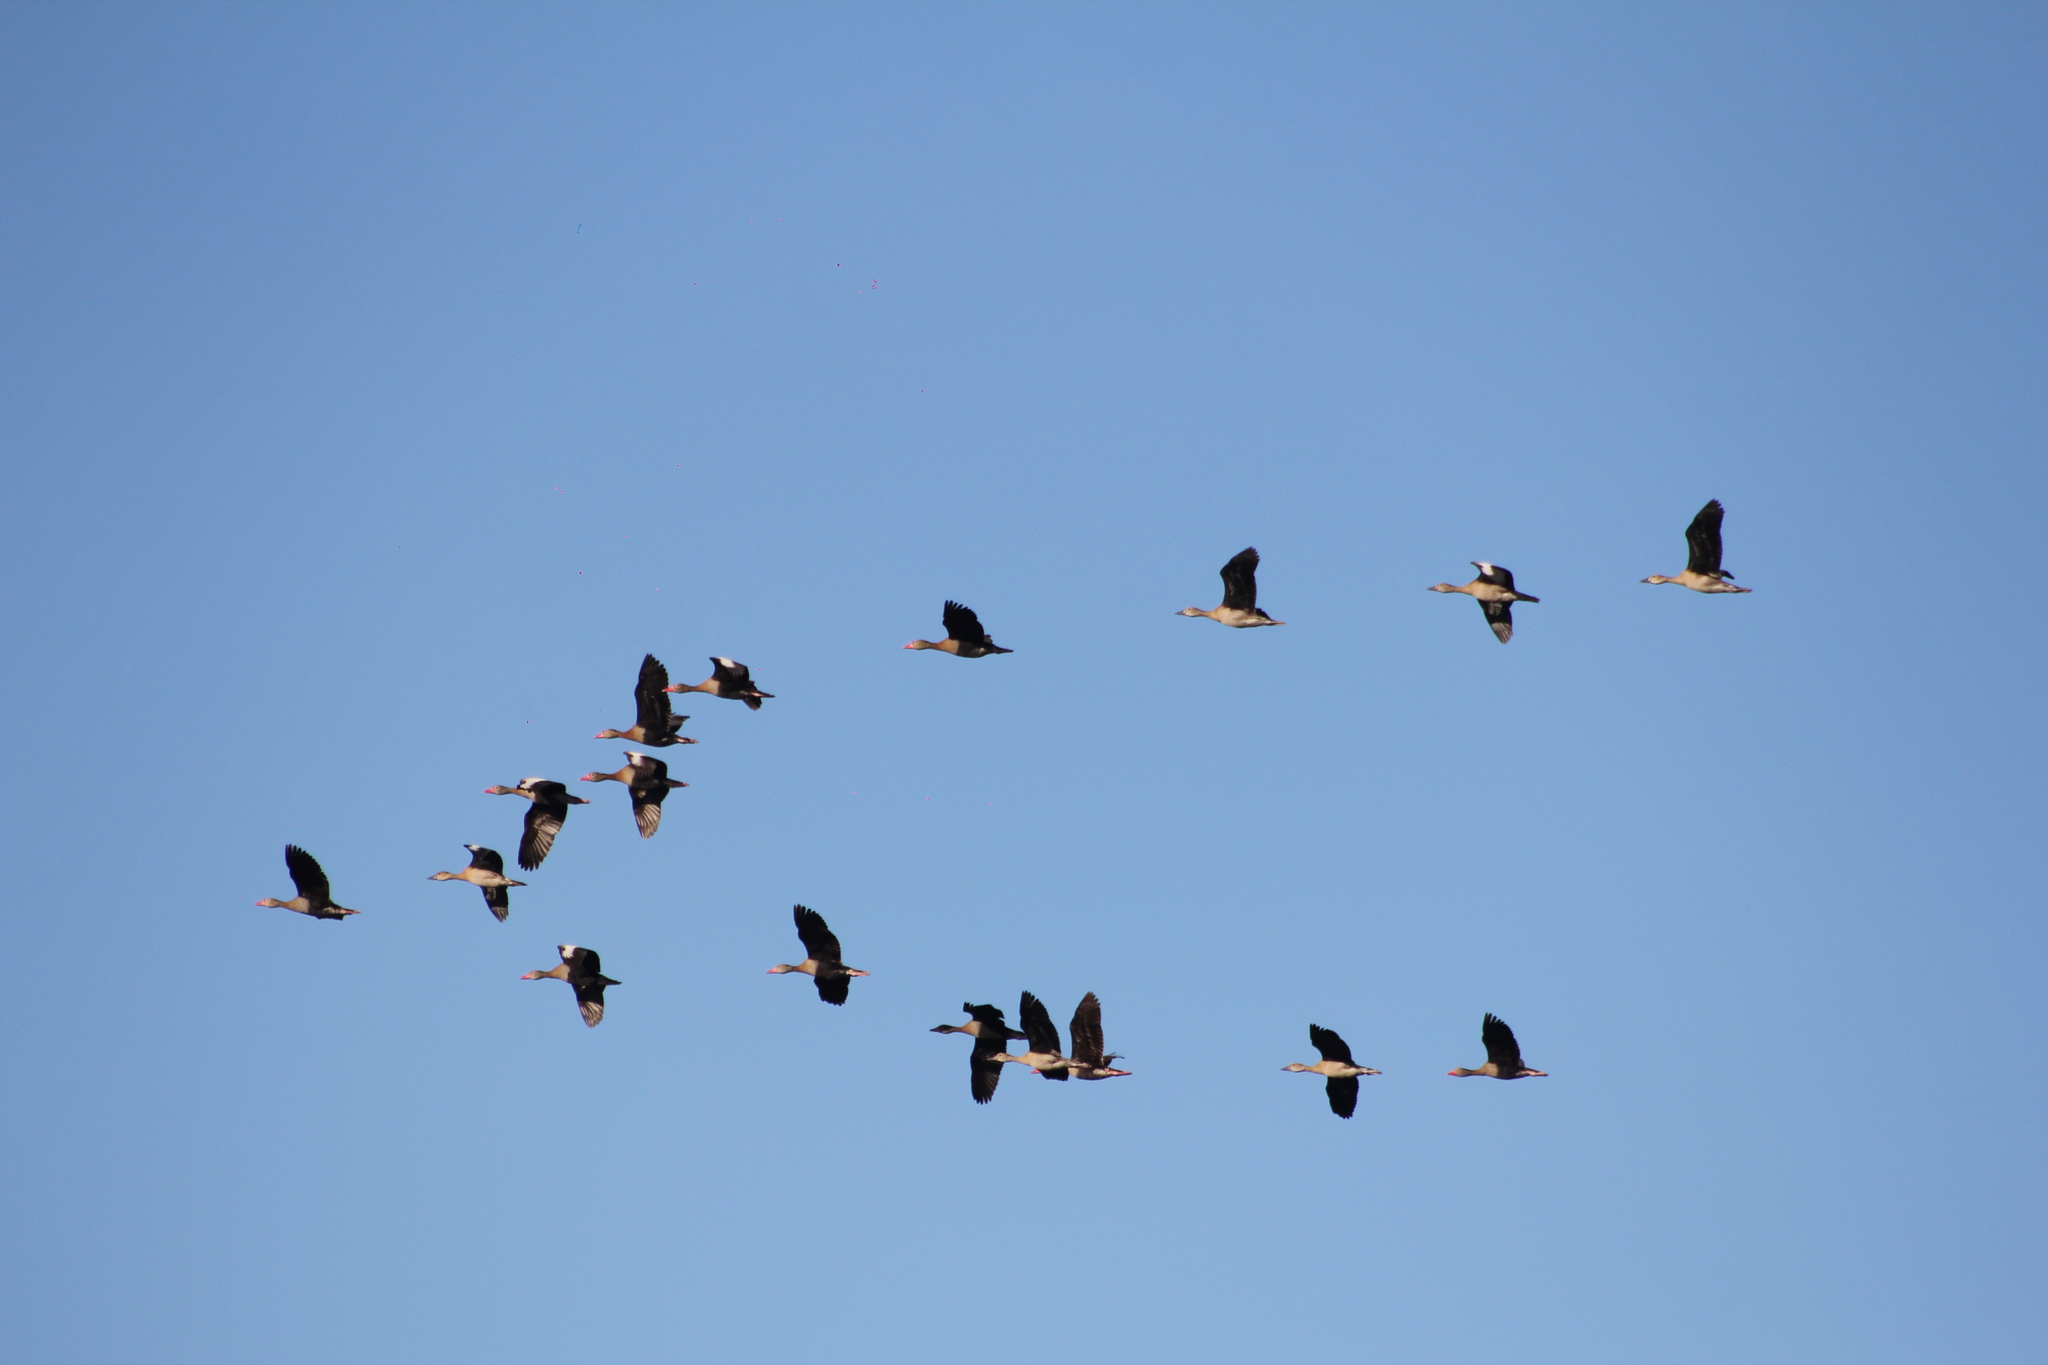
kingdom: Animalia
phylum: Chordata
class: Aves
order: Anseriformes
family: Anatidae
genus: Dendrocygna
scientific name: Dendrocygna autumnalis
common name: Black-bellied whistling duck
